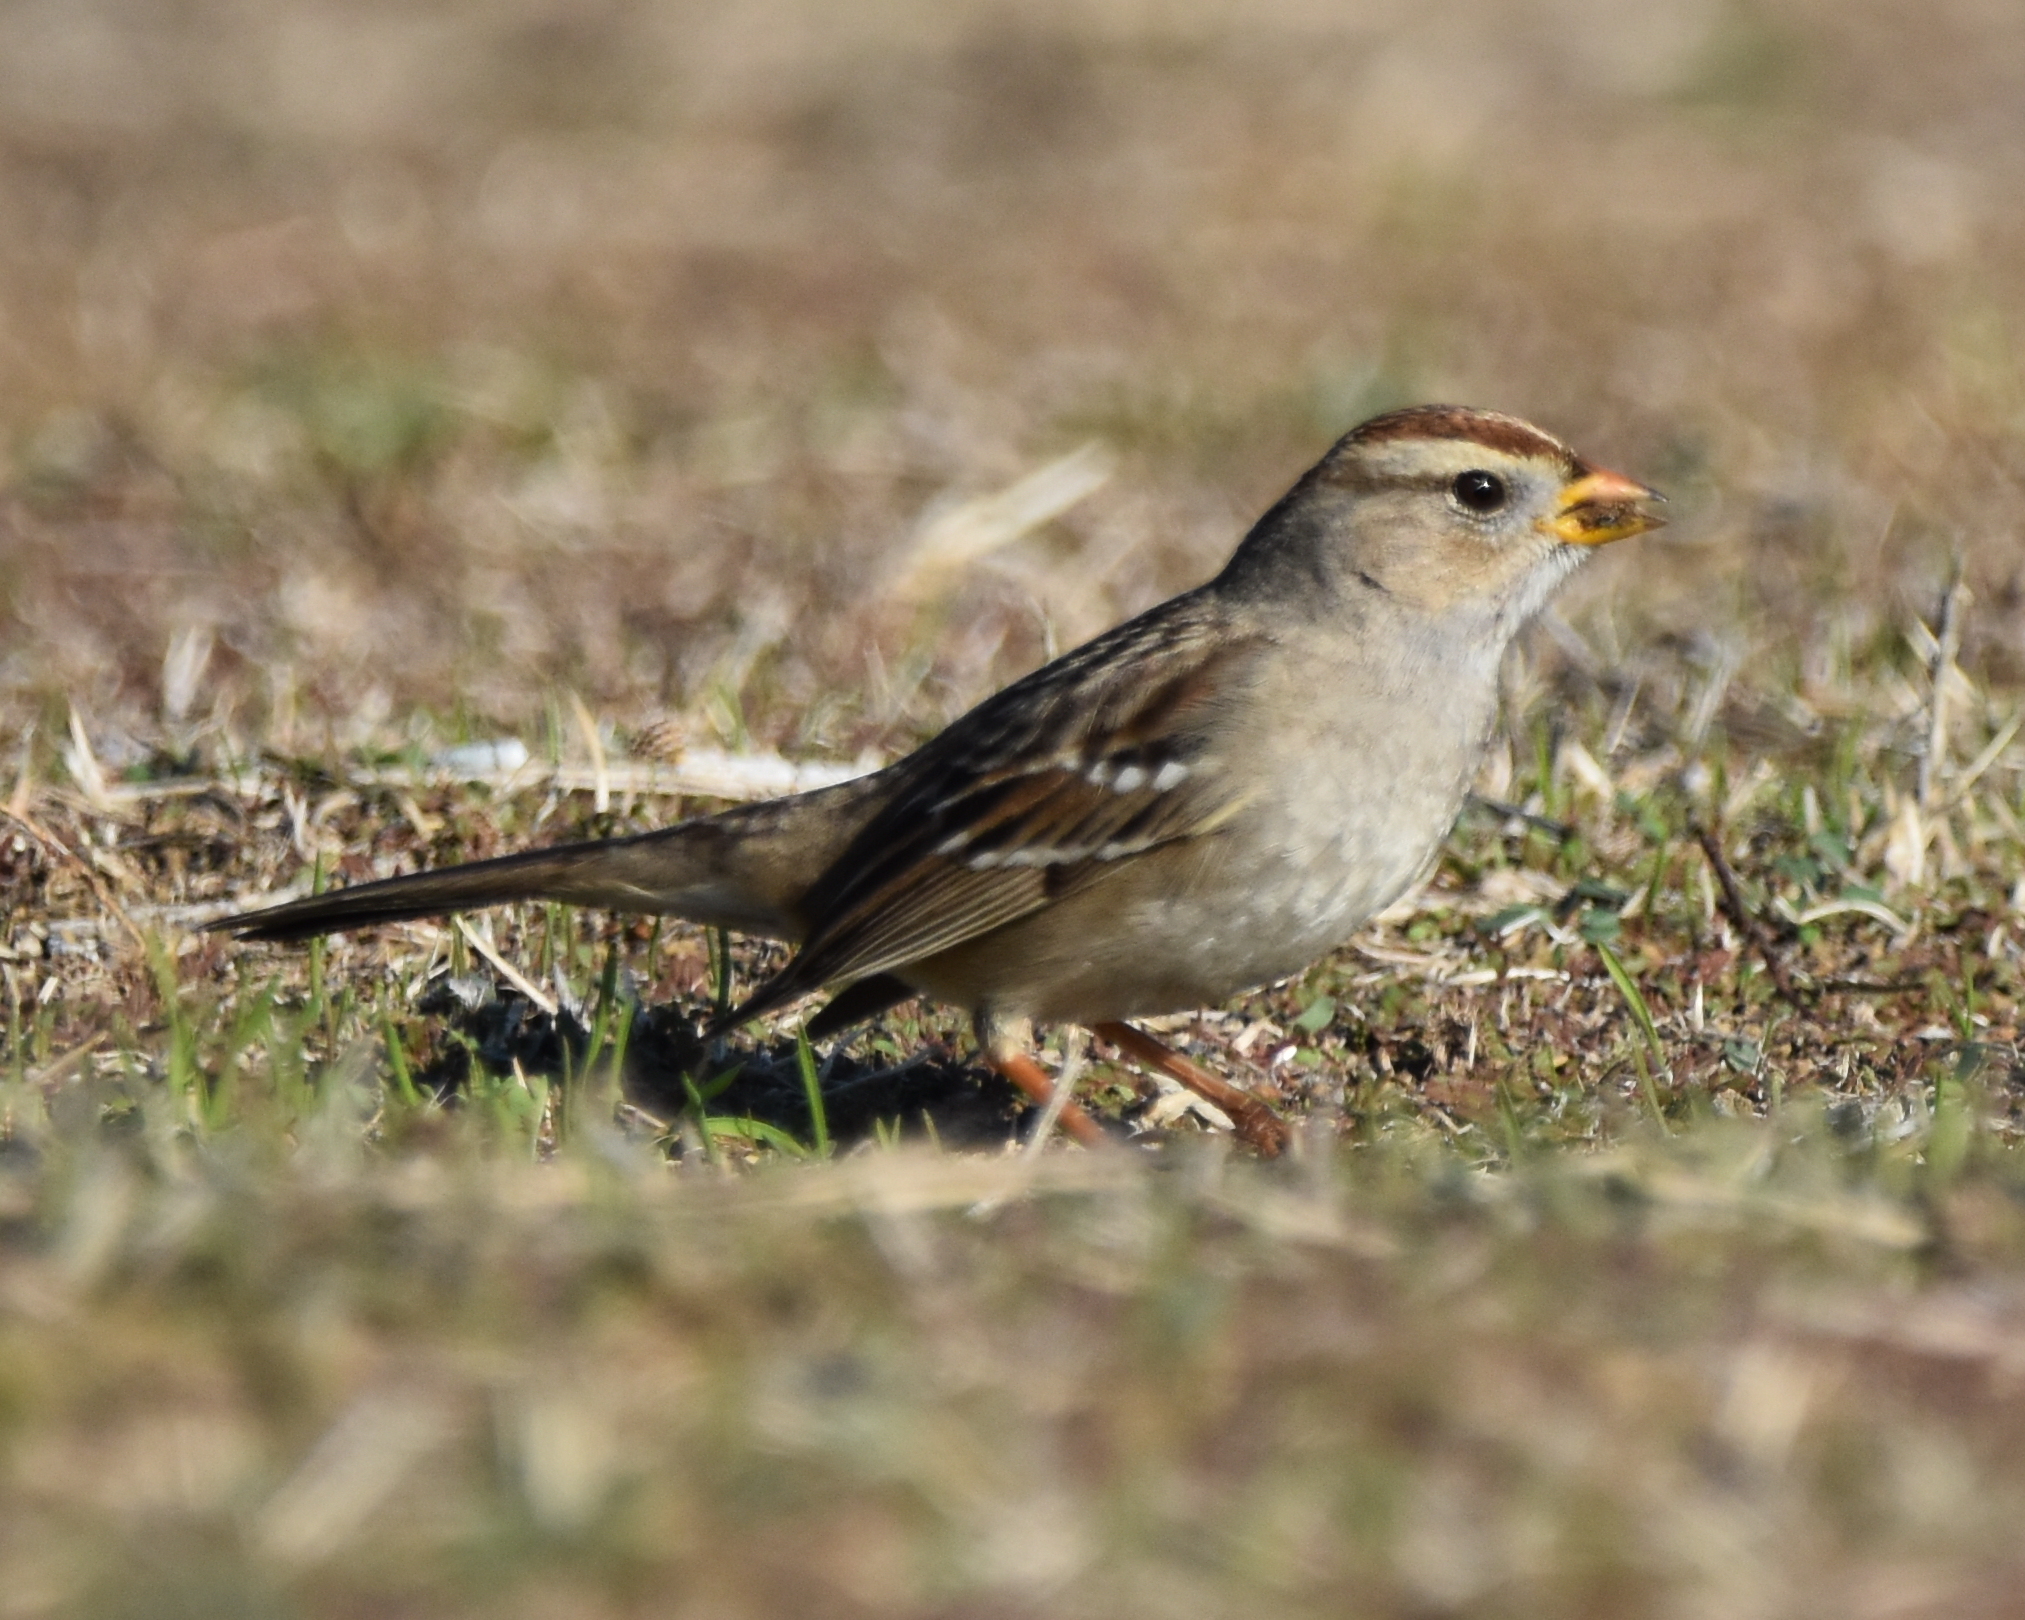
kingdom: Animalia
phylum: Chordata
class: Aves
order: Passeriformes
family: Passerellidae
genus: Zonotrichia
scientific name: Zonotrichia leucophrys
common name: White-crowned sparrow
